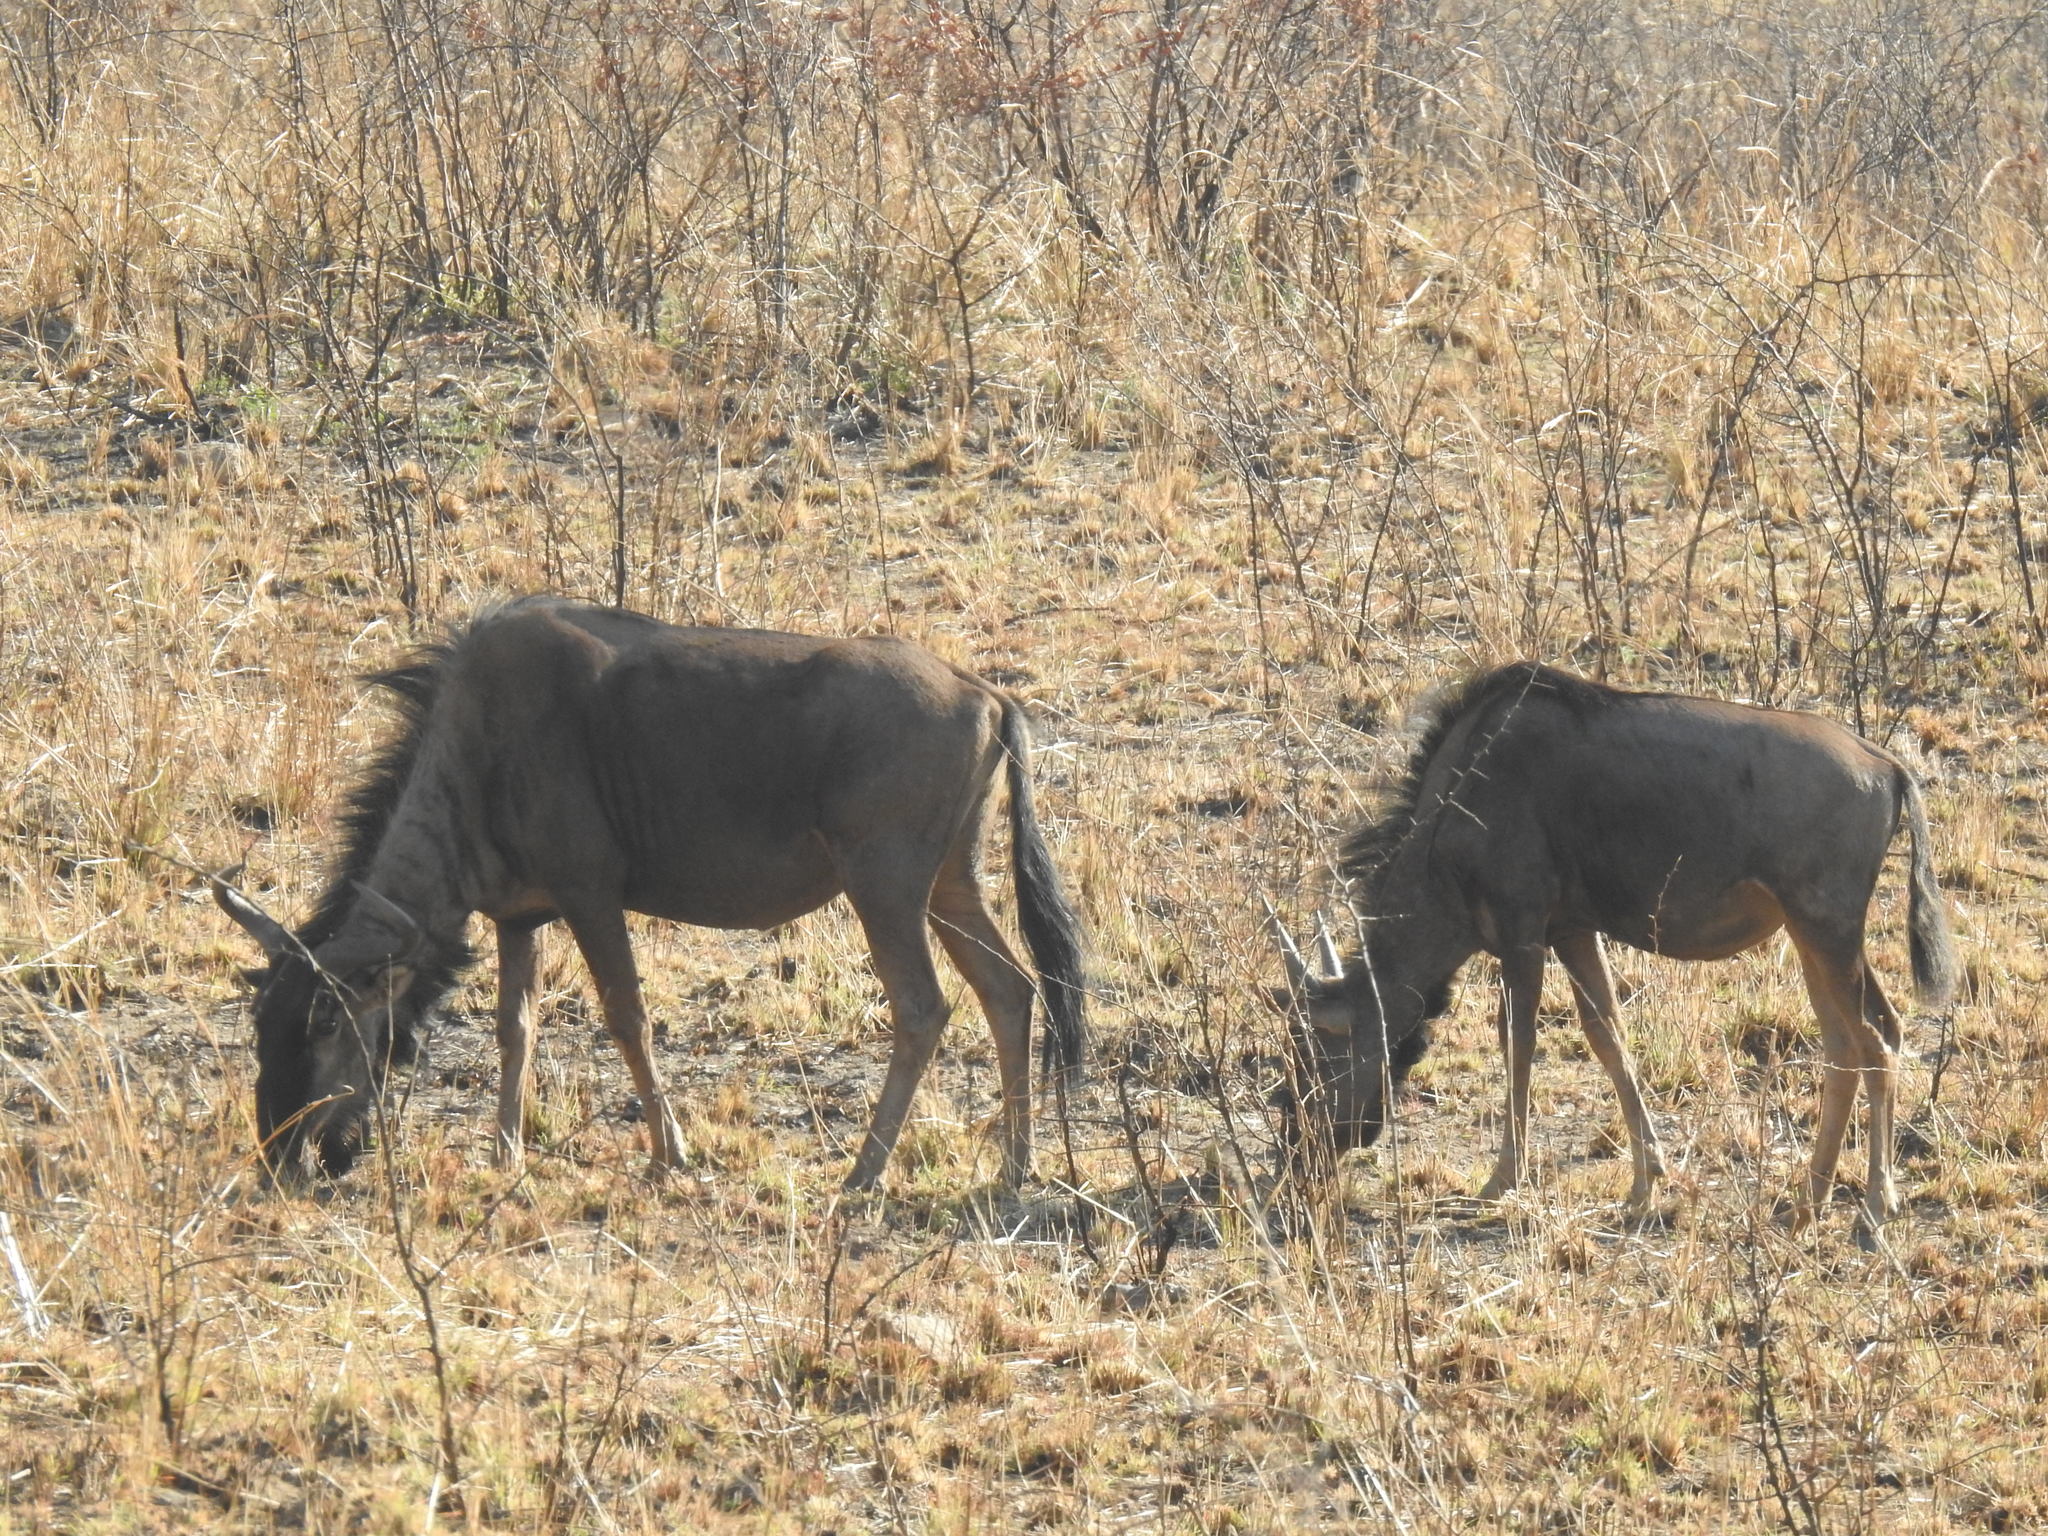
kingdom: Animalia
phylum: Chordata
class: Mammalia
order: Artiodactyla
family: Bovidae
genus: Connochaetes
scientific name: Connochaetes taurinus
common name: Blue wildebeest
